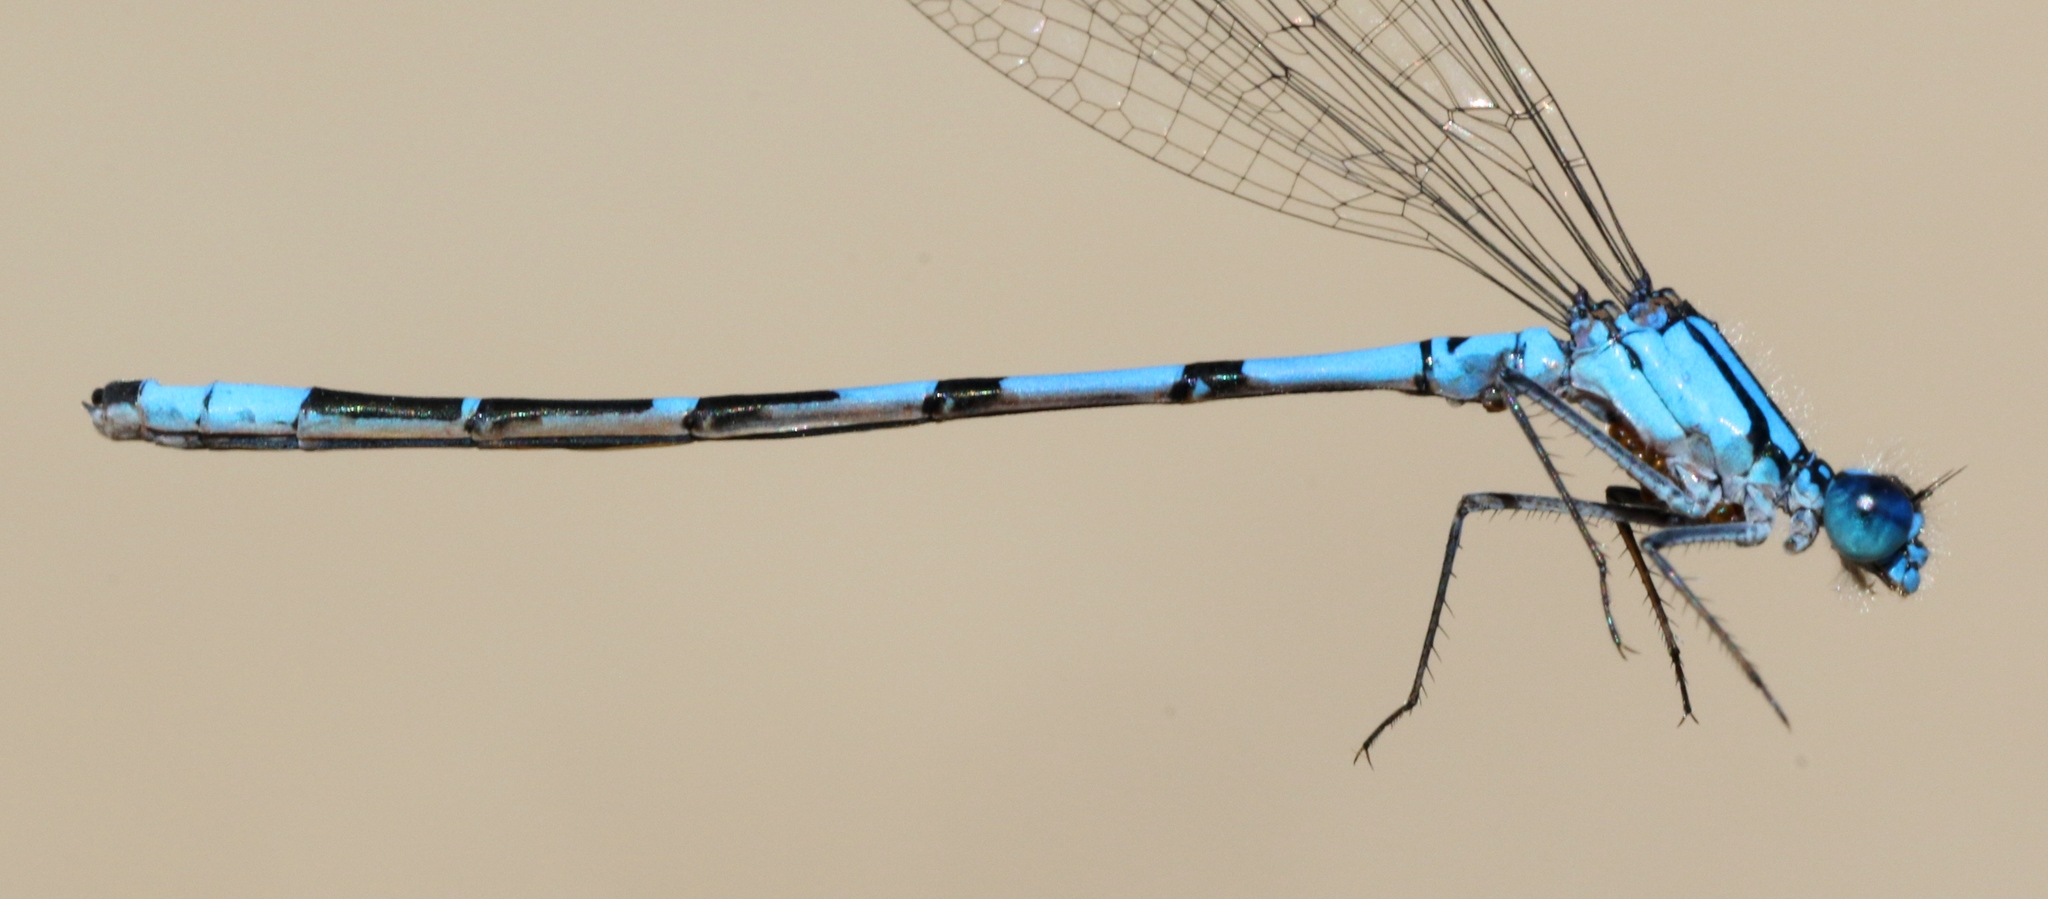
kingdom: Animalia
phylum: Arthropoda
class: Insecta
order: Odonata
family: Coenagrionidae
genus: Enallagma
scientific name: Enallagma boreale
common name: Boreal bluet
